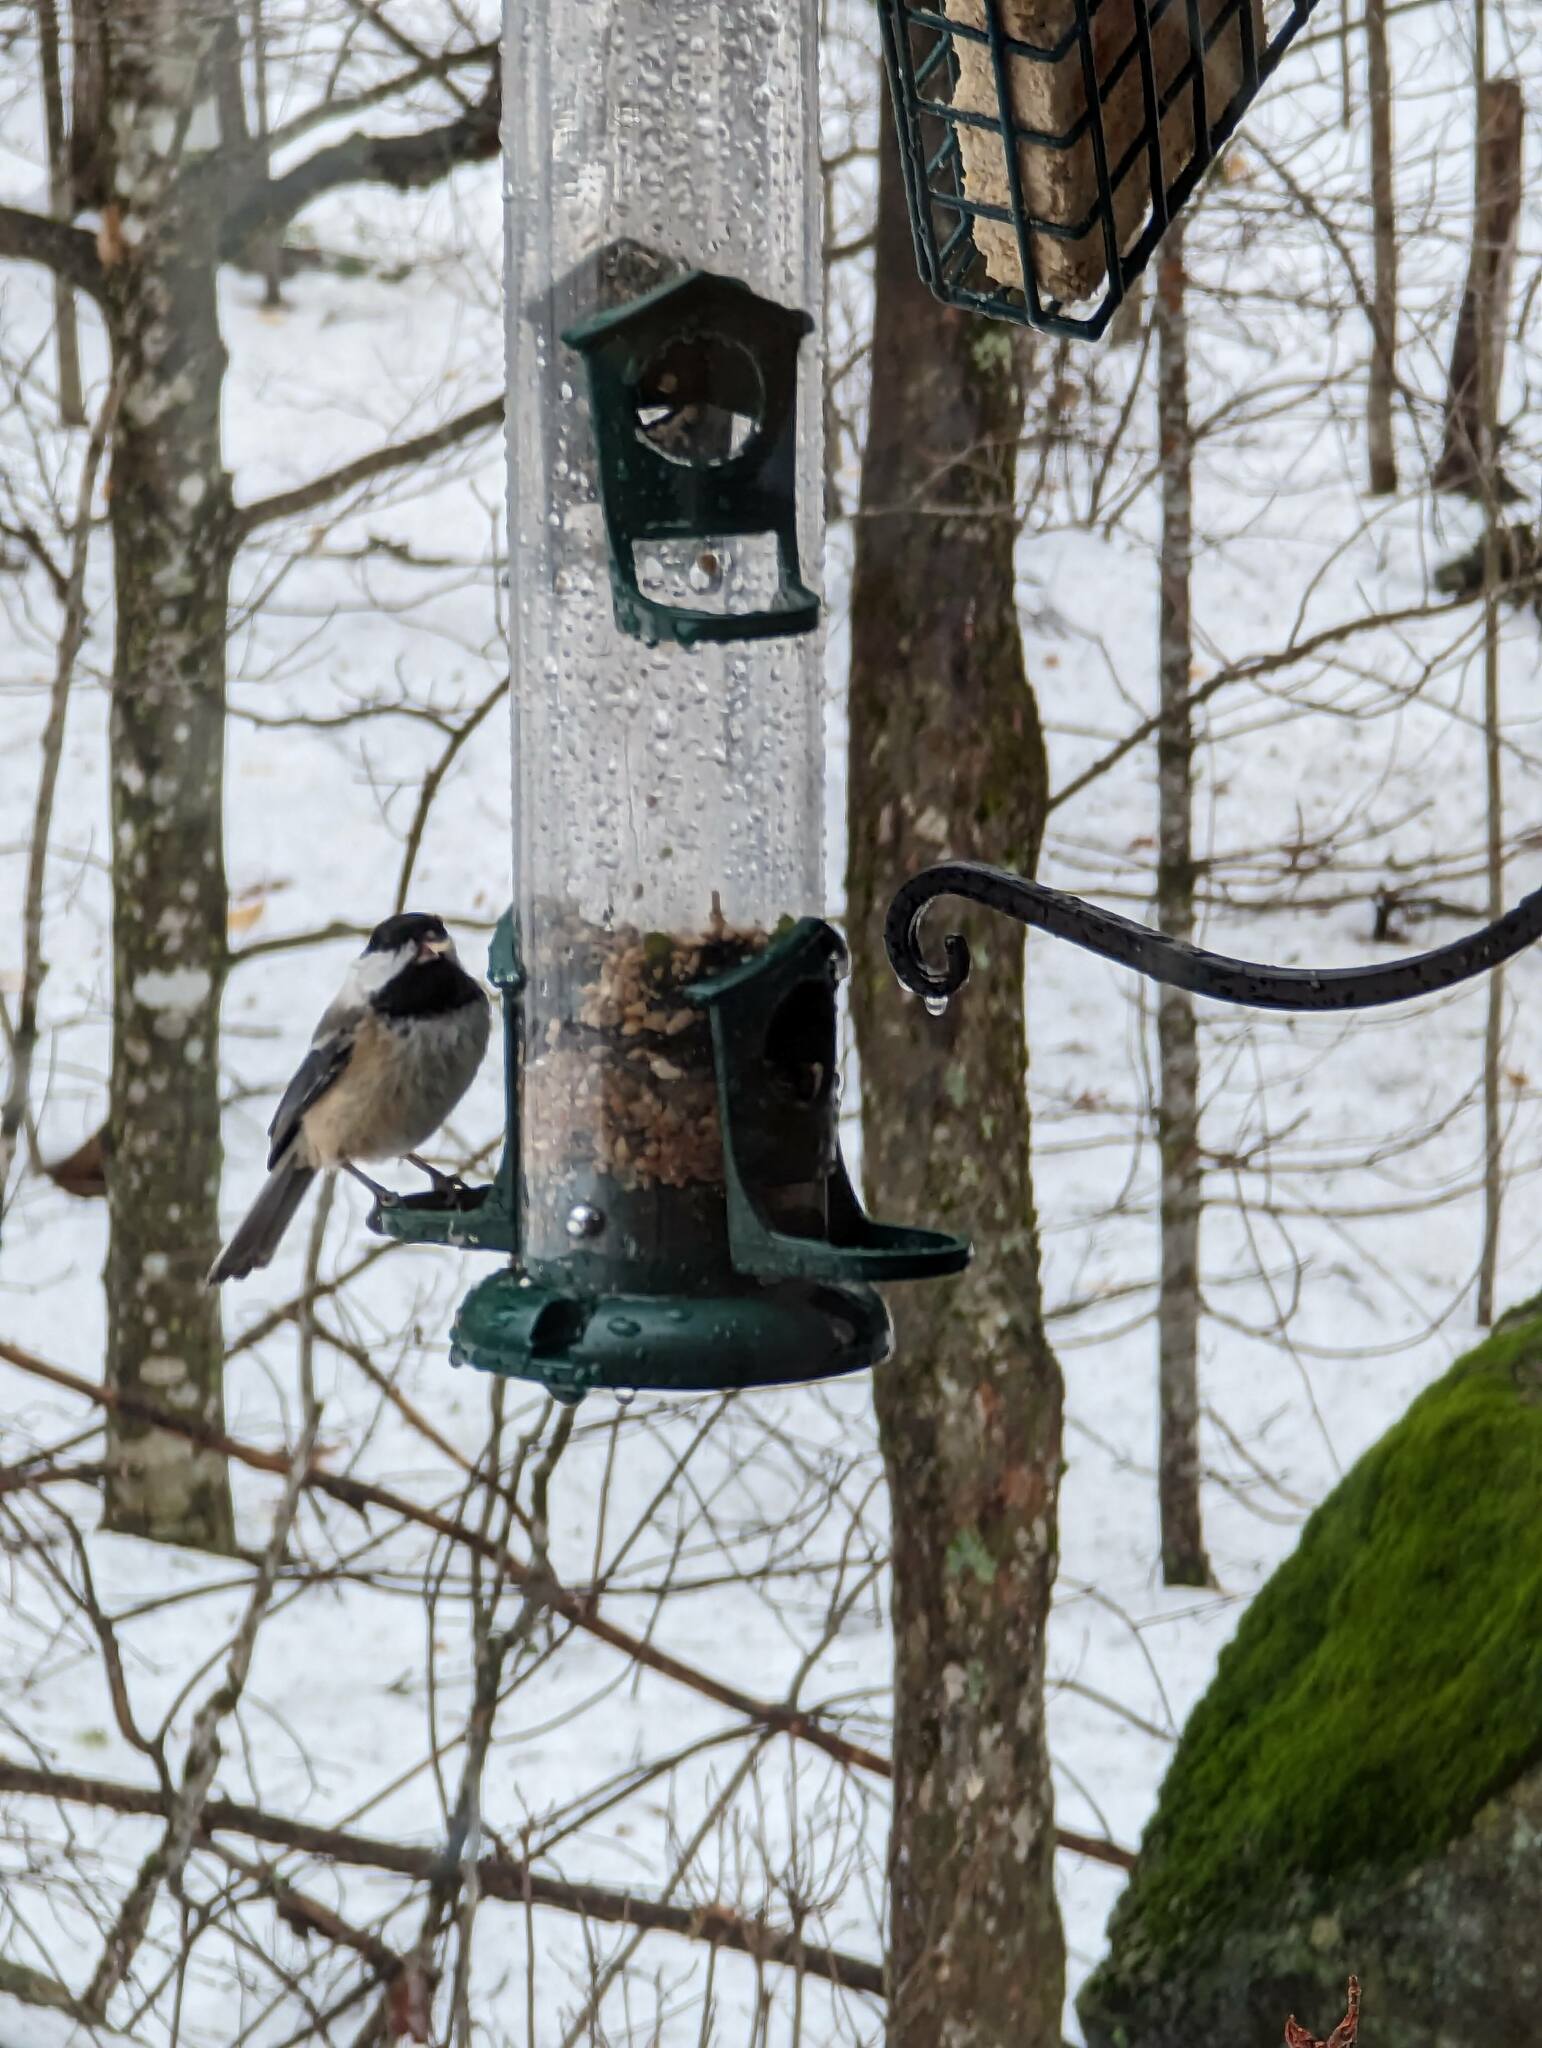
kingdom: Animalia
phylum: Chordata
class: Aves
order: Passeriformes
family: Paridae
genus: Poecile
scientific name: Poecile atricapillus
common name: Black-capped chickadee
